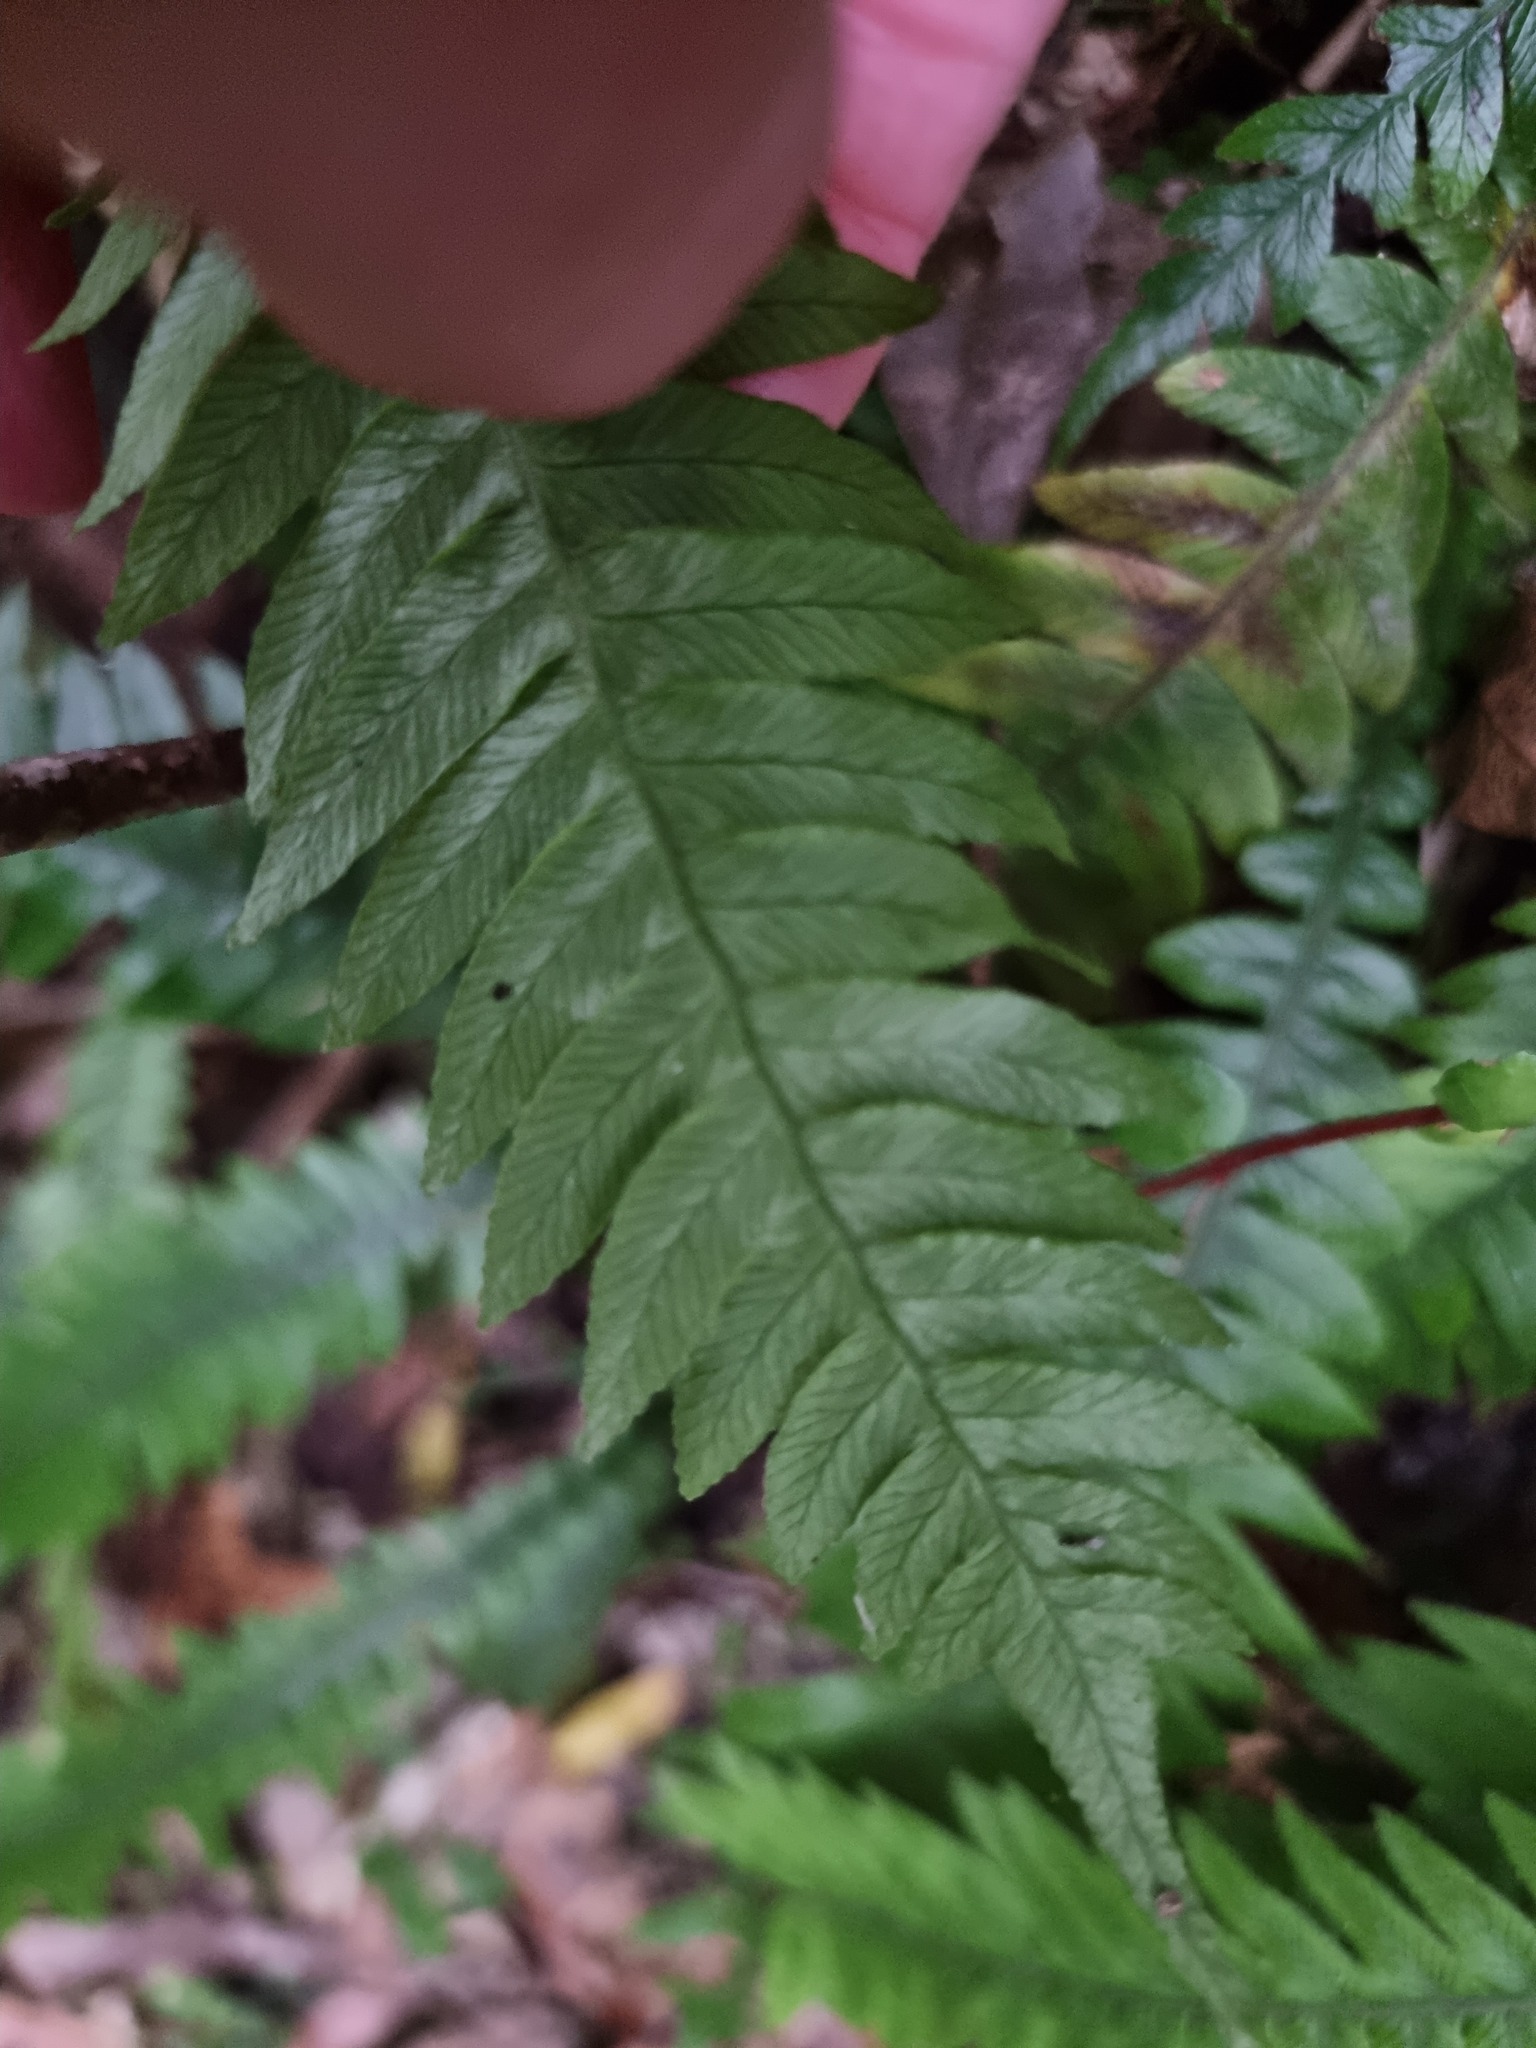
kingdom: Plantae
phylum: Tracheophyta
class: Polypodiopsida
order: Polypodiales
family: Blechnaceae
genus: Austroblechnum
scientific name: Austroblechnum lanceolatum
